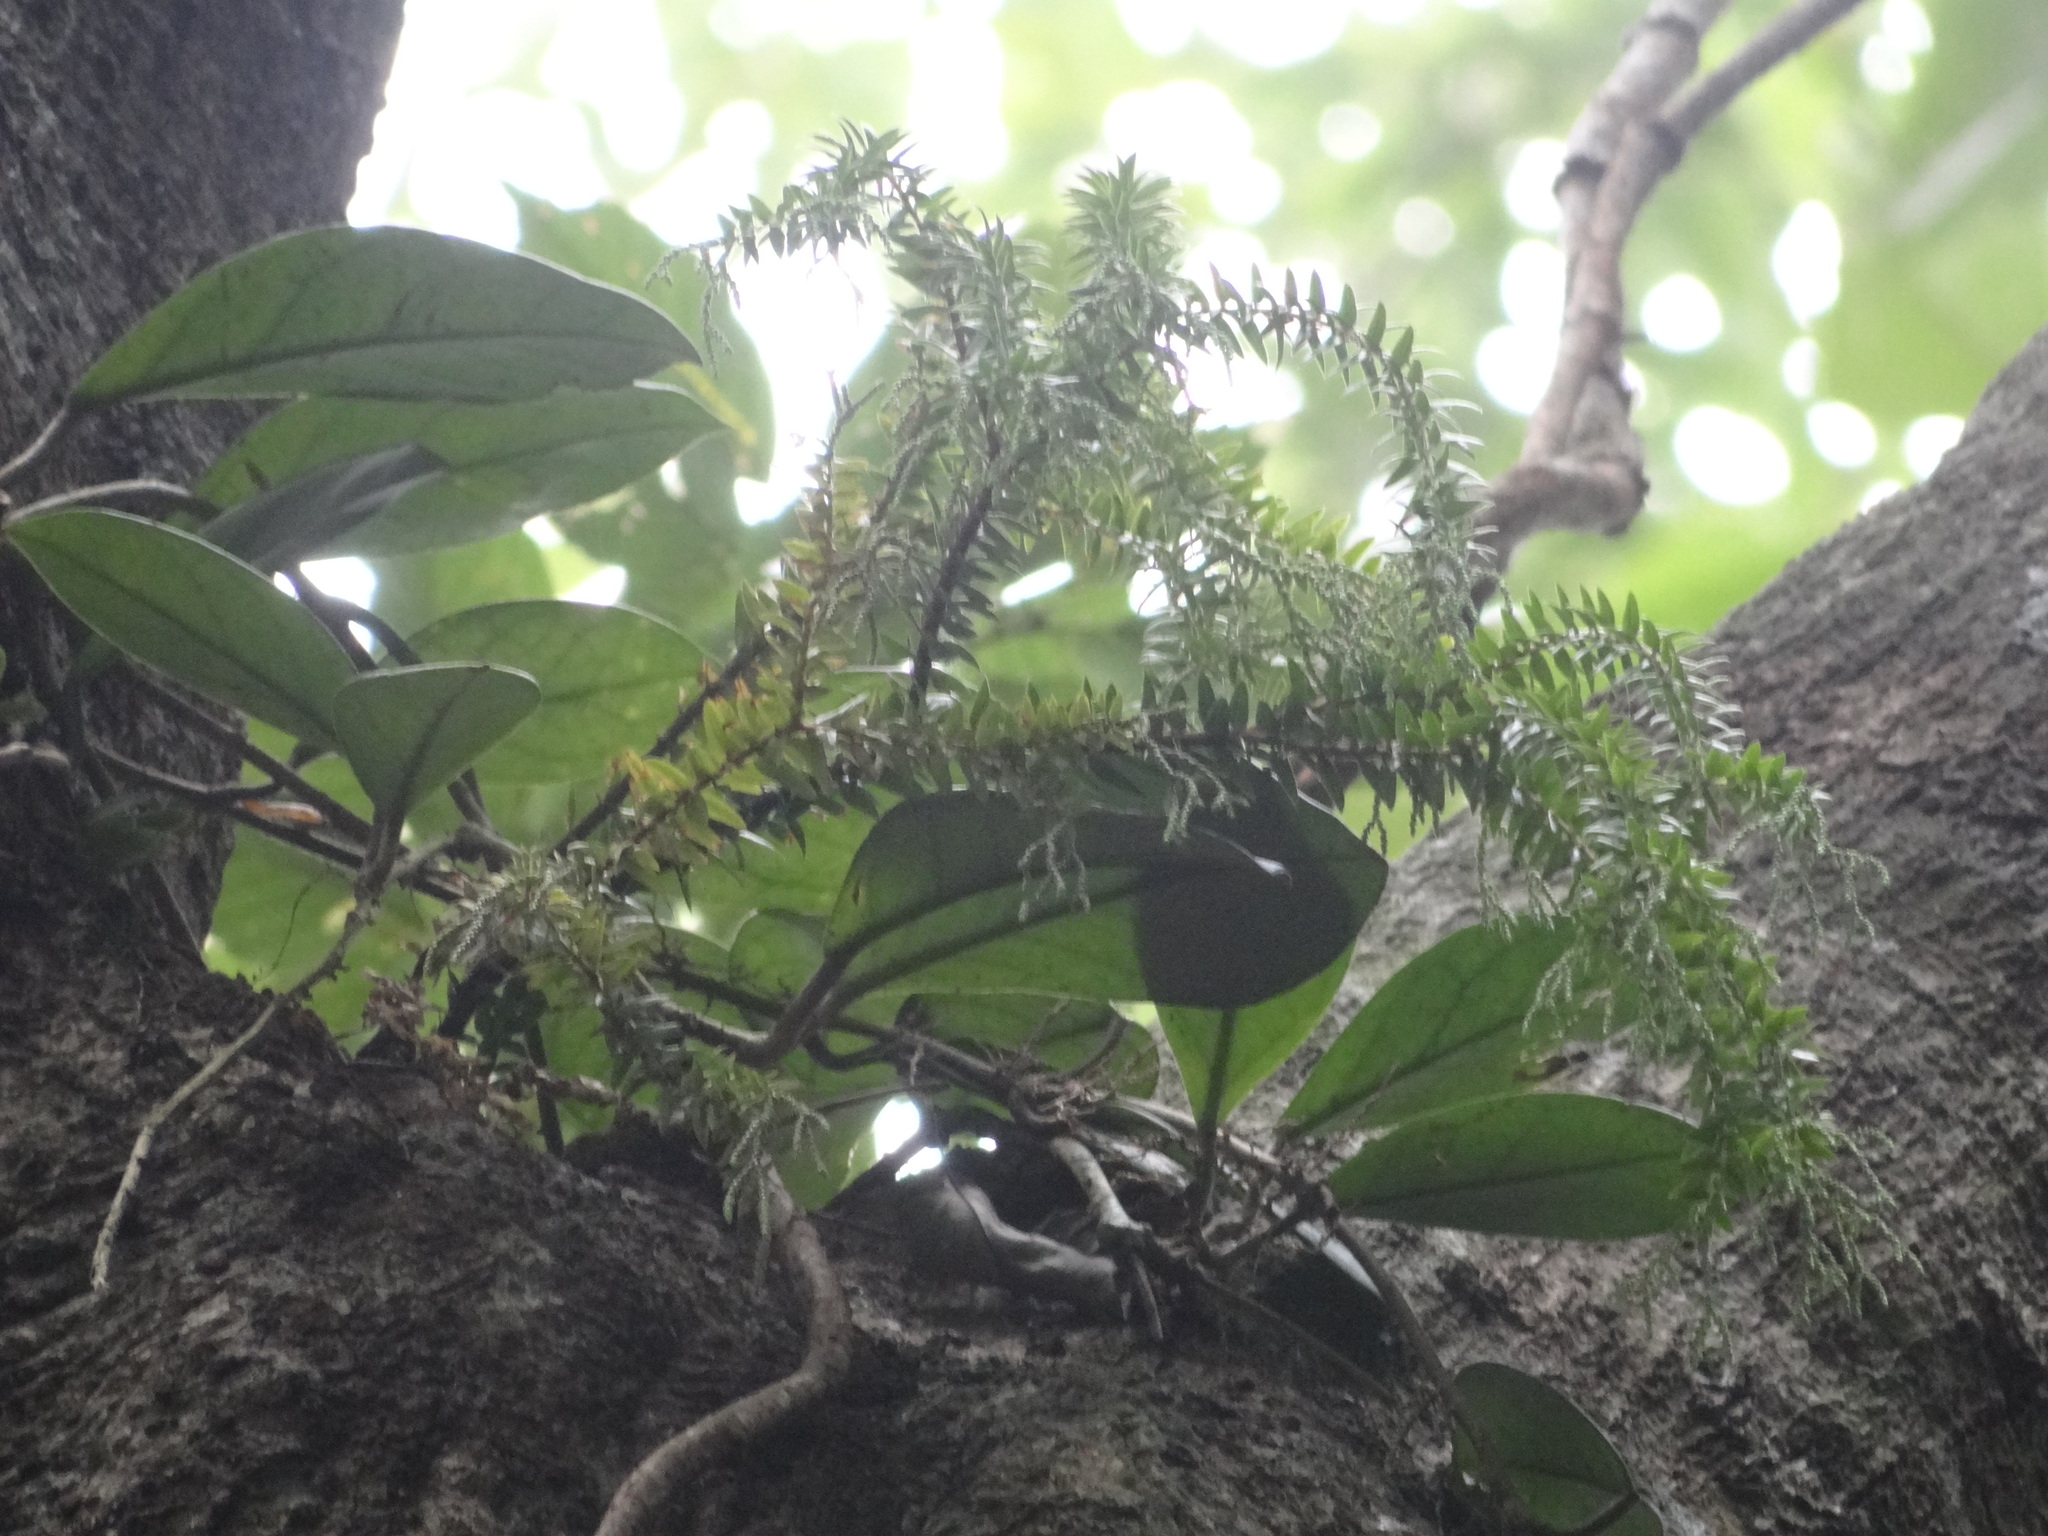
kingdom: Plantae
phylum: Tracheophyta
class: Lycopodiopsida
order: Lycopodiales
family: Lycopodiaceae
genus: Phlegmariurus
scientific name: Phlegmariurus phlegmaria
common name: Coarse tassel-fern
